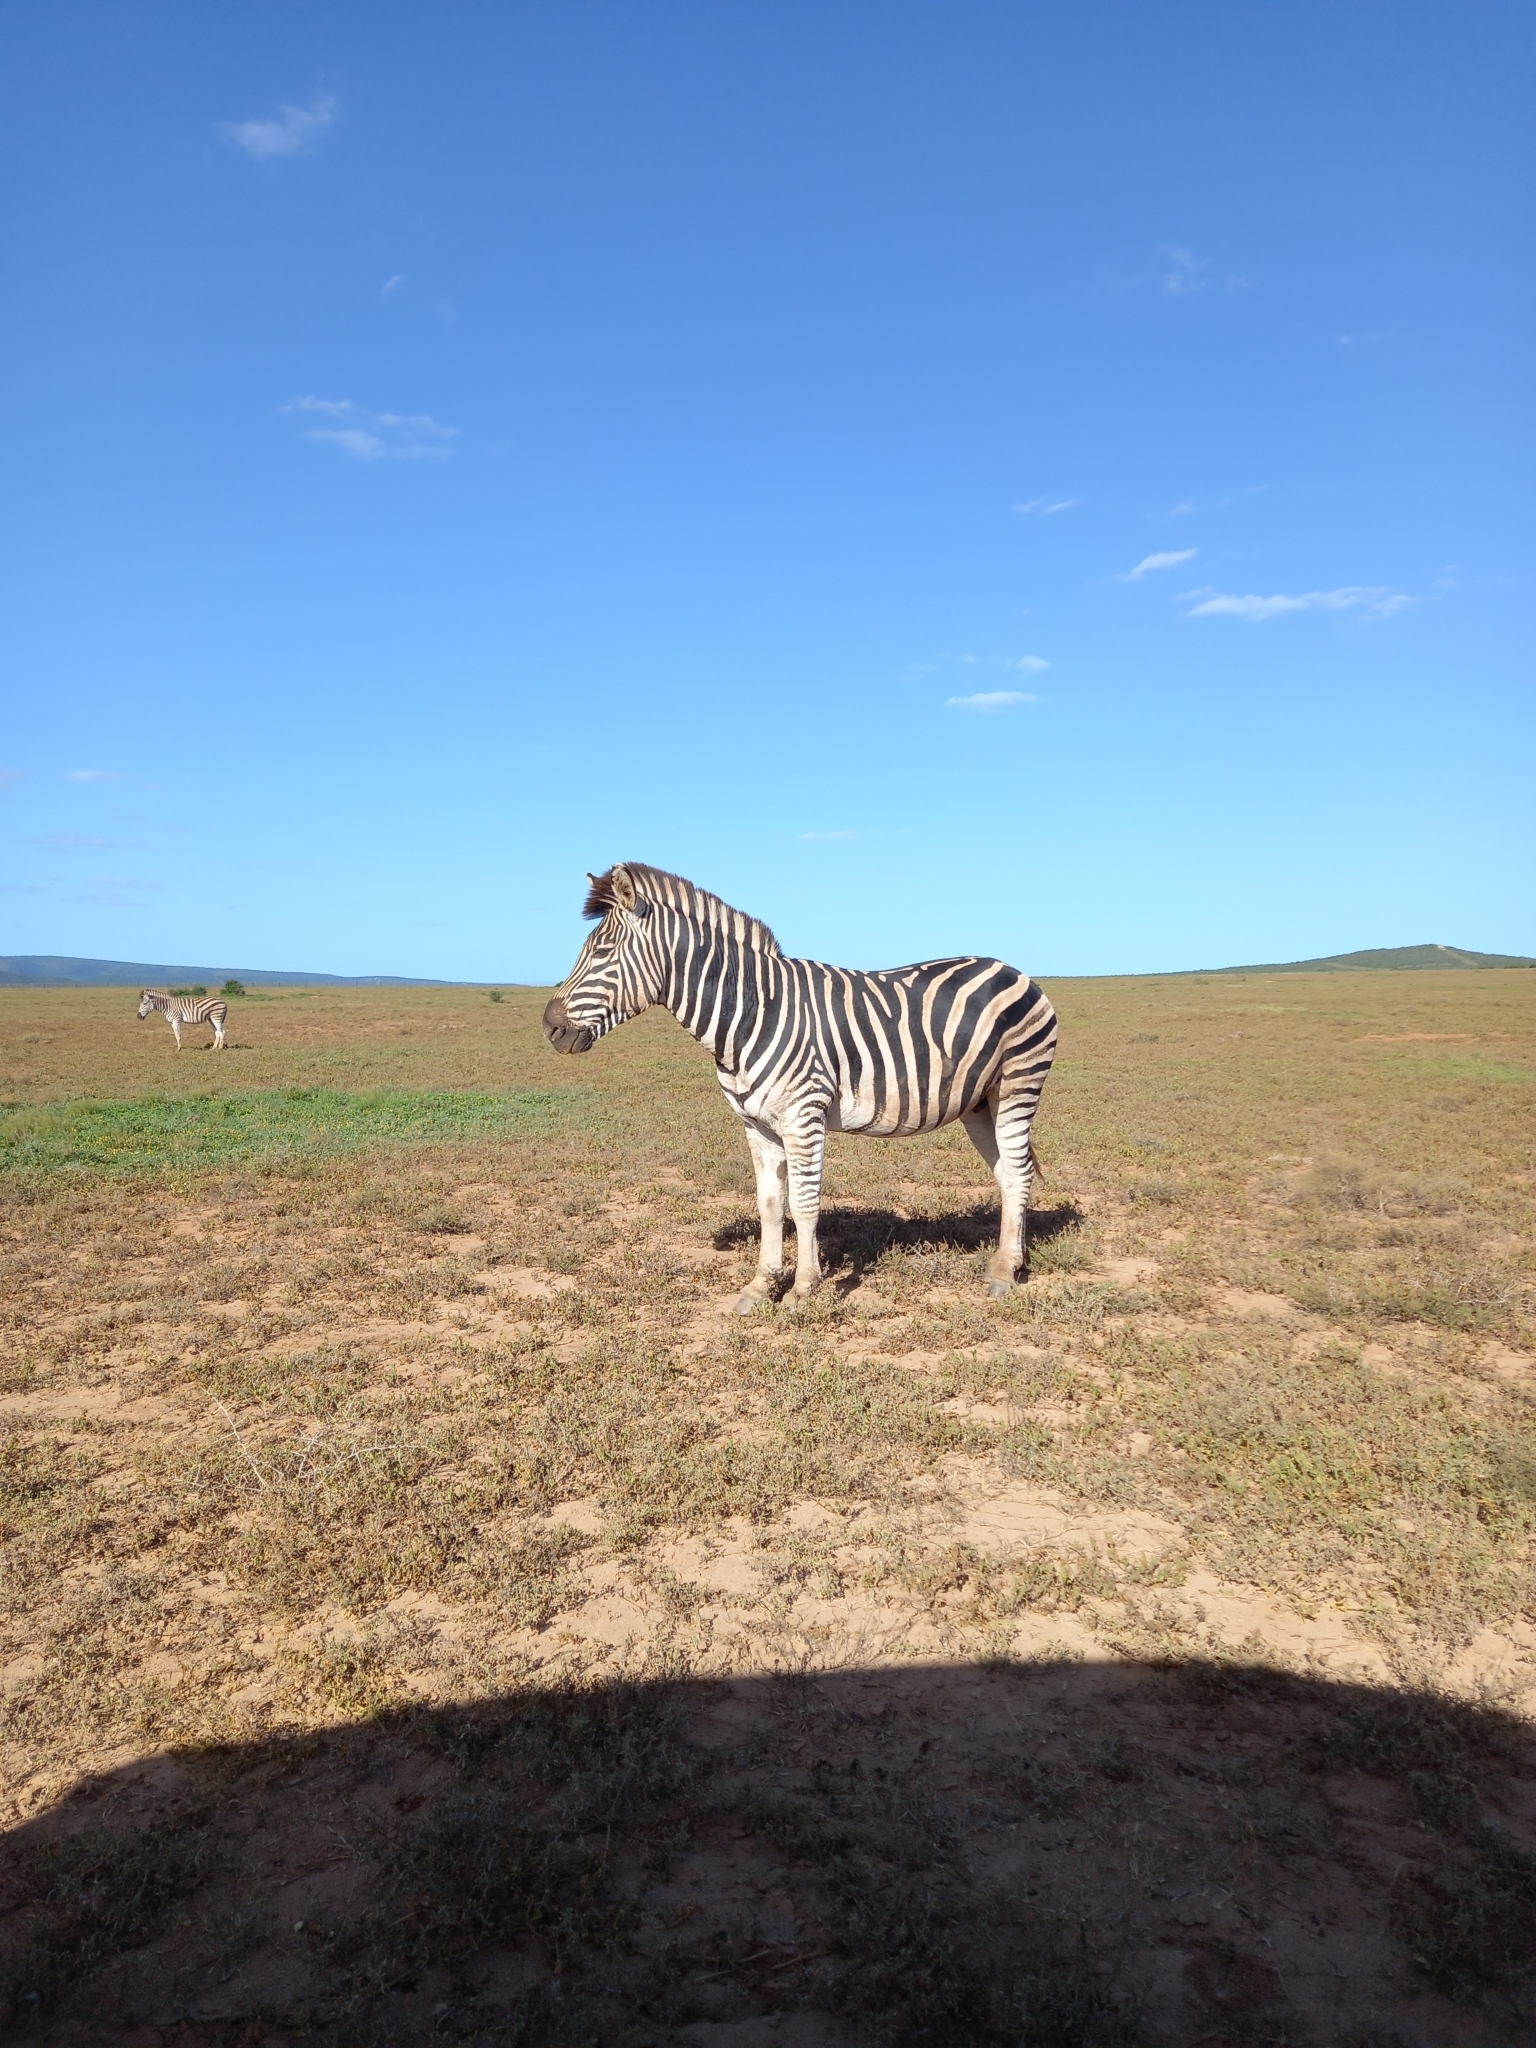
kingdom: Animalia
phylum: Chordata
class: Mammalia
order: Perissodactyla
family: Equidae
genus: Equus
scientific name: Equus quagga
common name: Plains zebra
